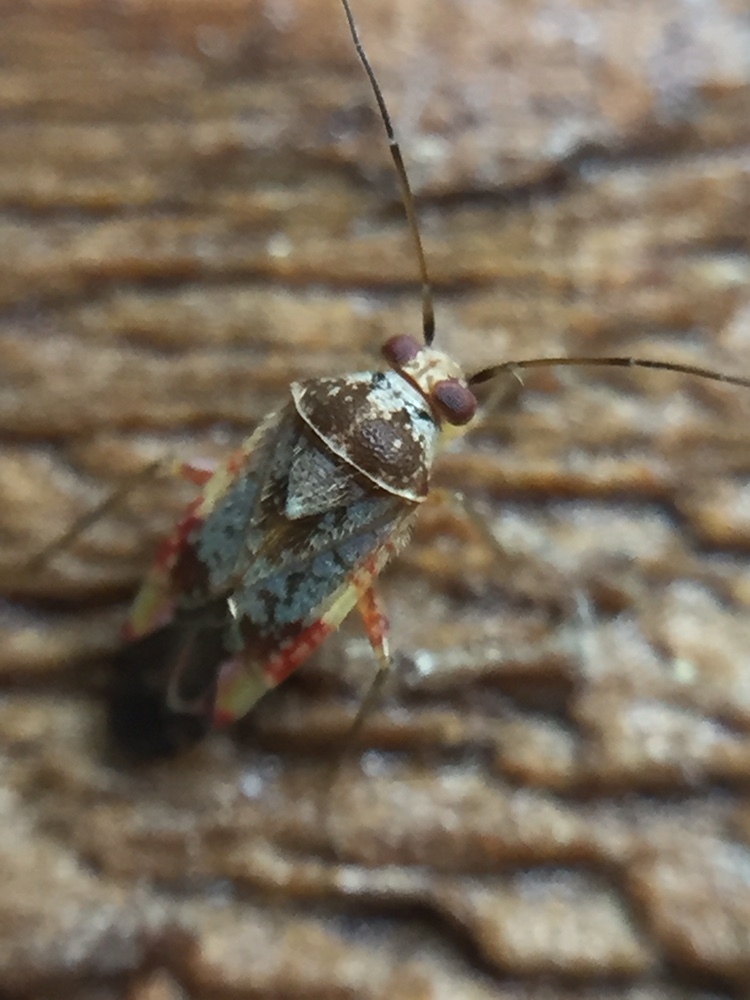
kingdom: Animalia
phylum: Arthropoda
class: Insecta
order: Hemiptera
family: Miridae
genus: Tinginotum
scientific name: Tinginotum minutum
